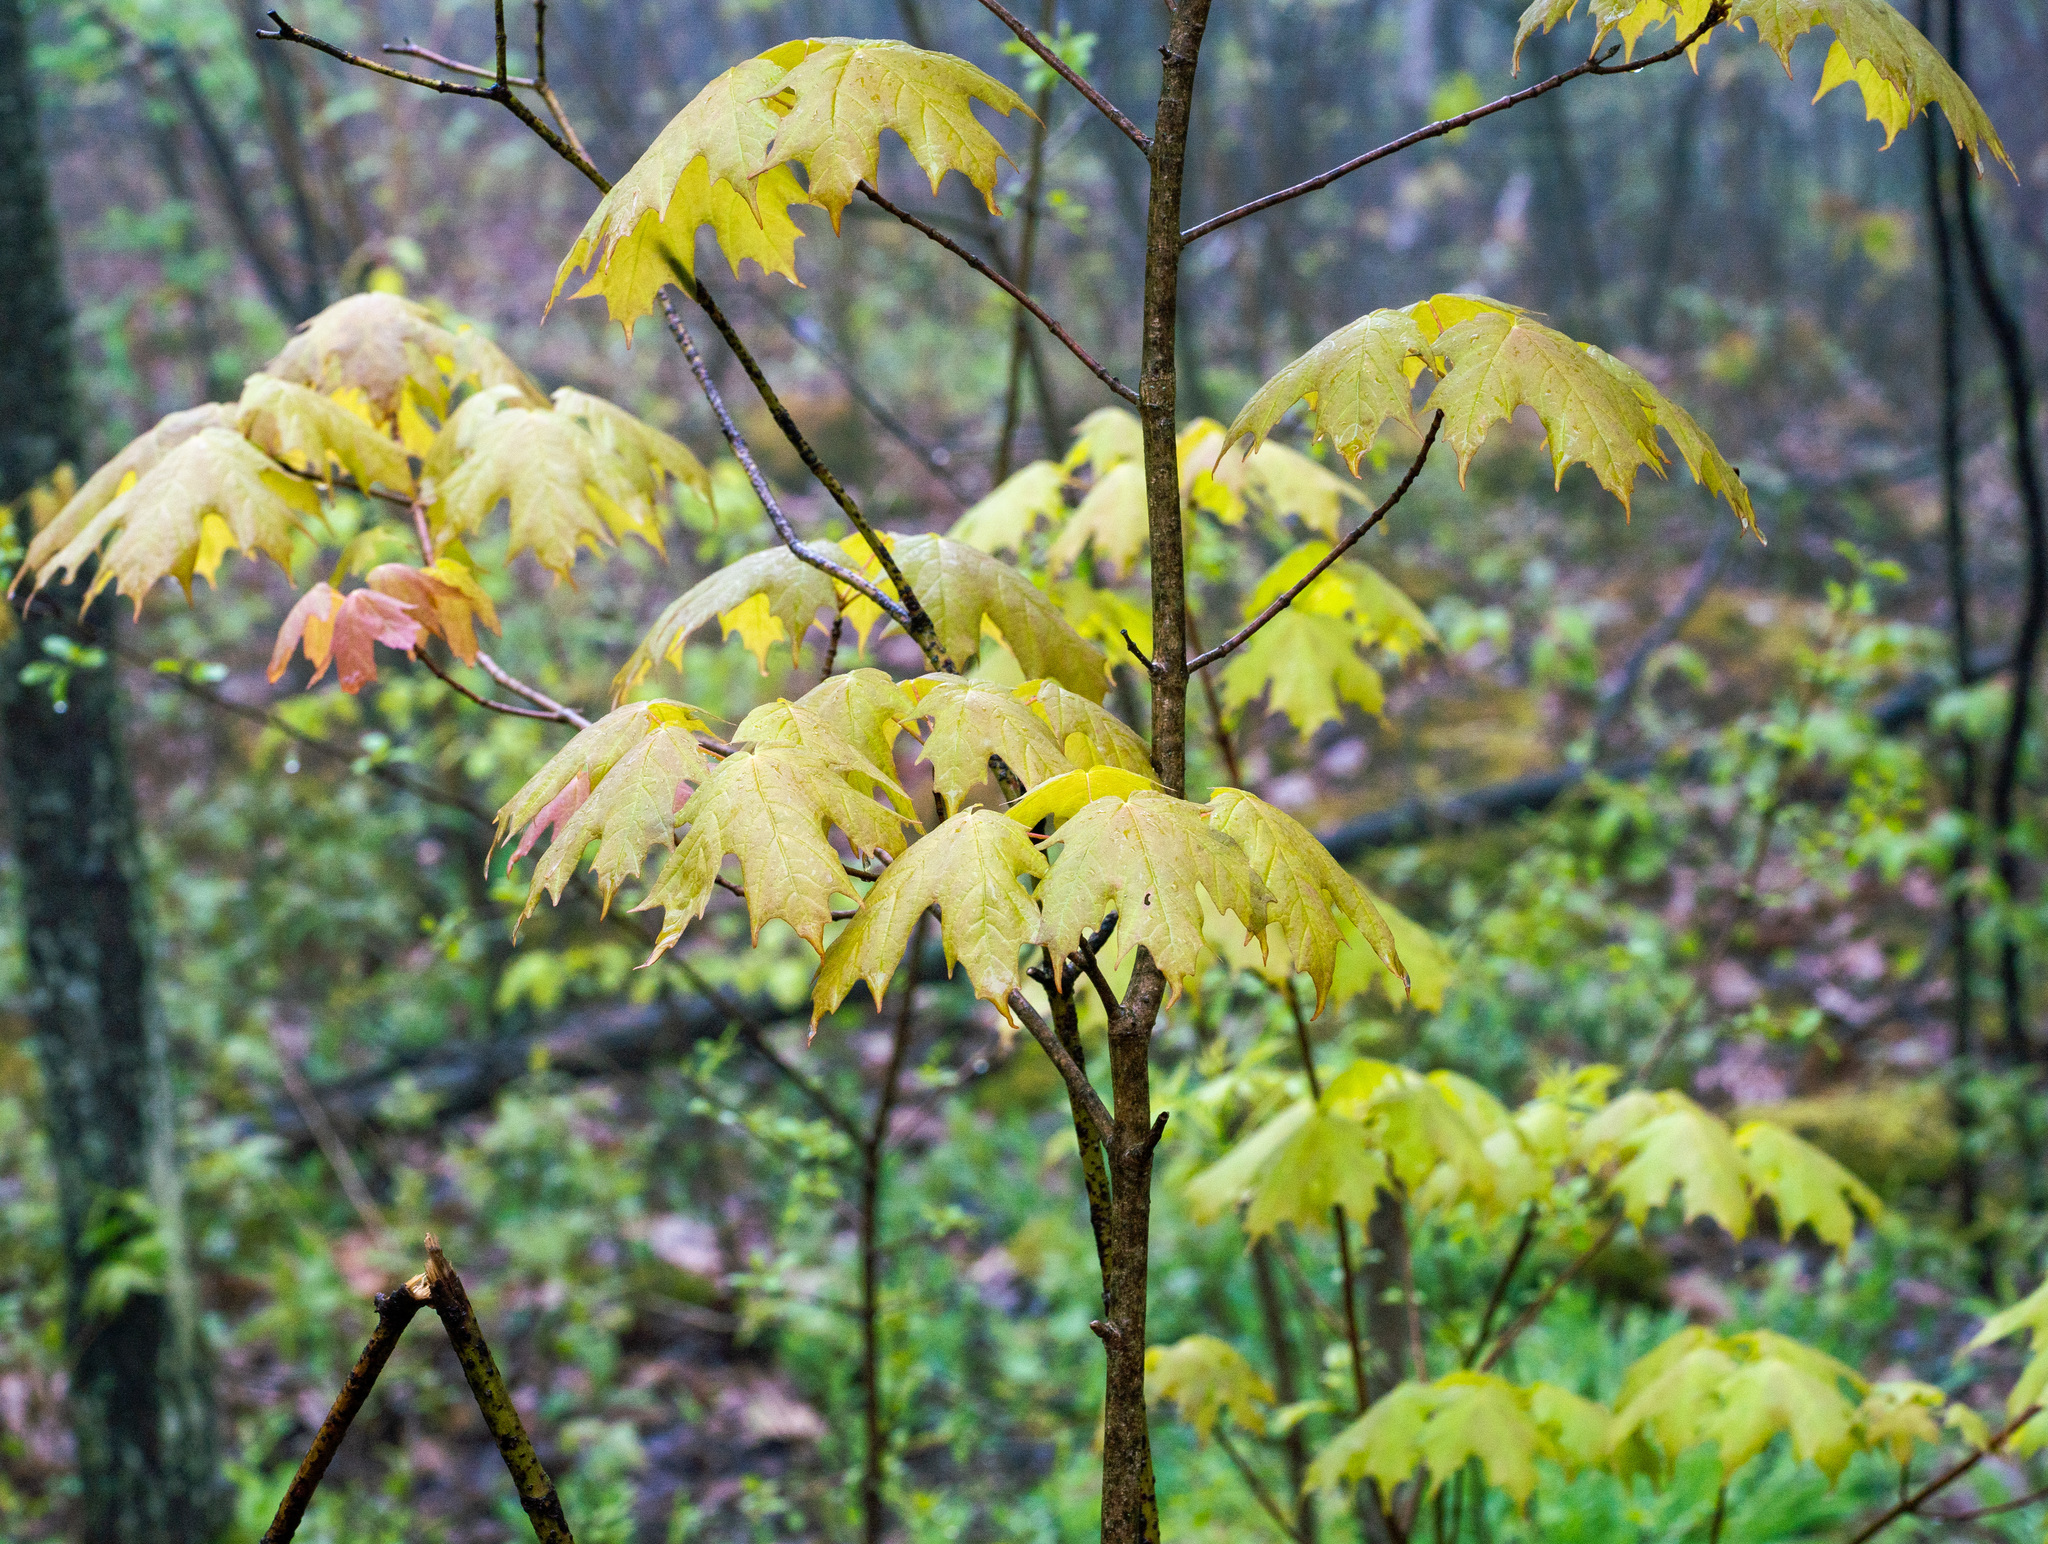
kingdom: Plantae
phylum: Tracheophyta
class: Magnoliopsida
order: Sapindales
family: Sapindaceae
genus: Acer
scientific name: Acer saccharum
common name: Sugar maple
